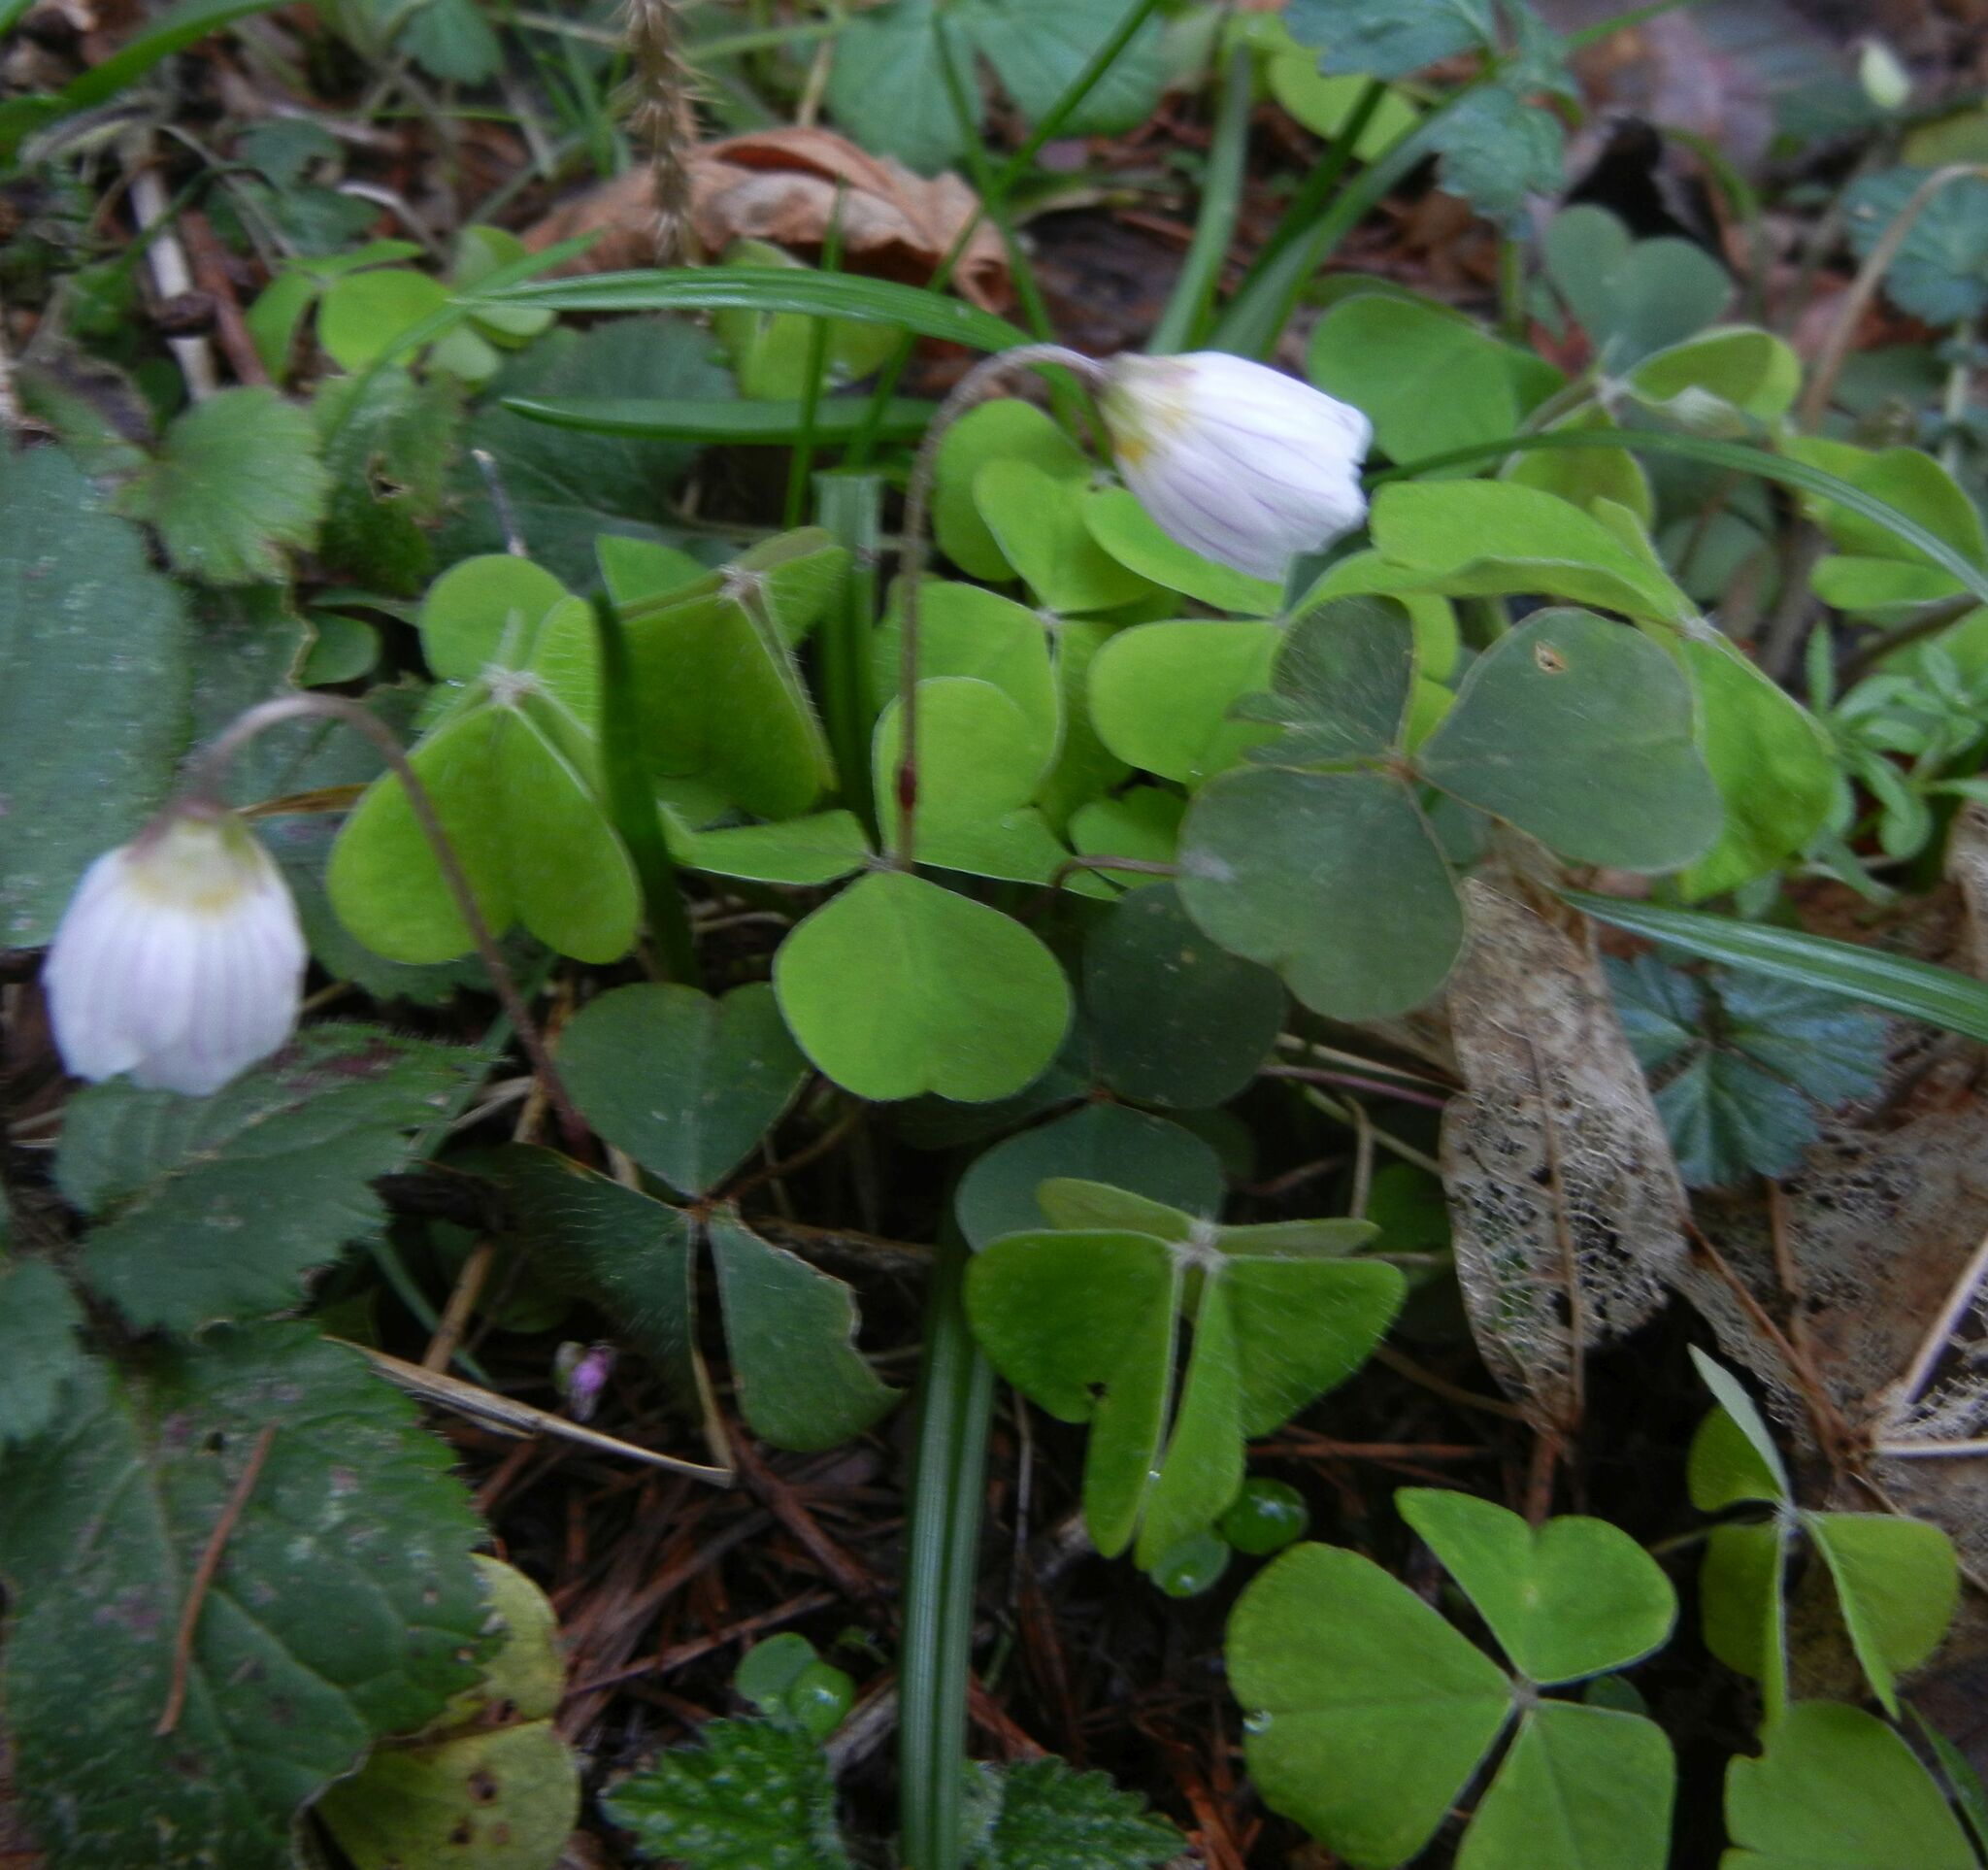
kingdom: Plantae
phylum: Tracheophyta
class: Magnoliopsida
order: Oxalidales
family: Oxalidaceae
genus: Oxalis
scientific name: Oxalis acetosella
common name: Wood-sorrel
